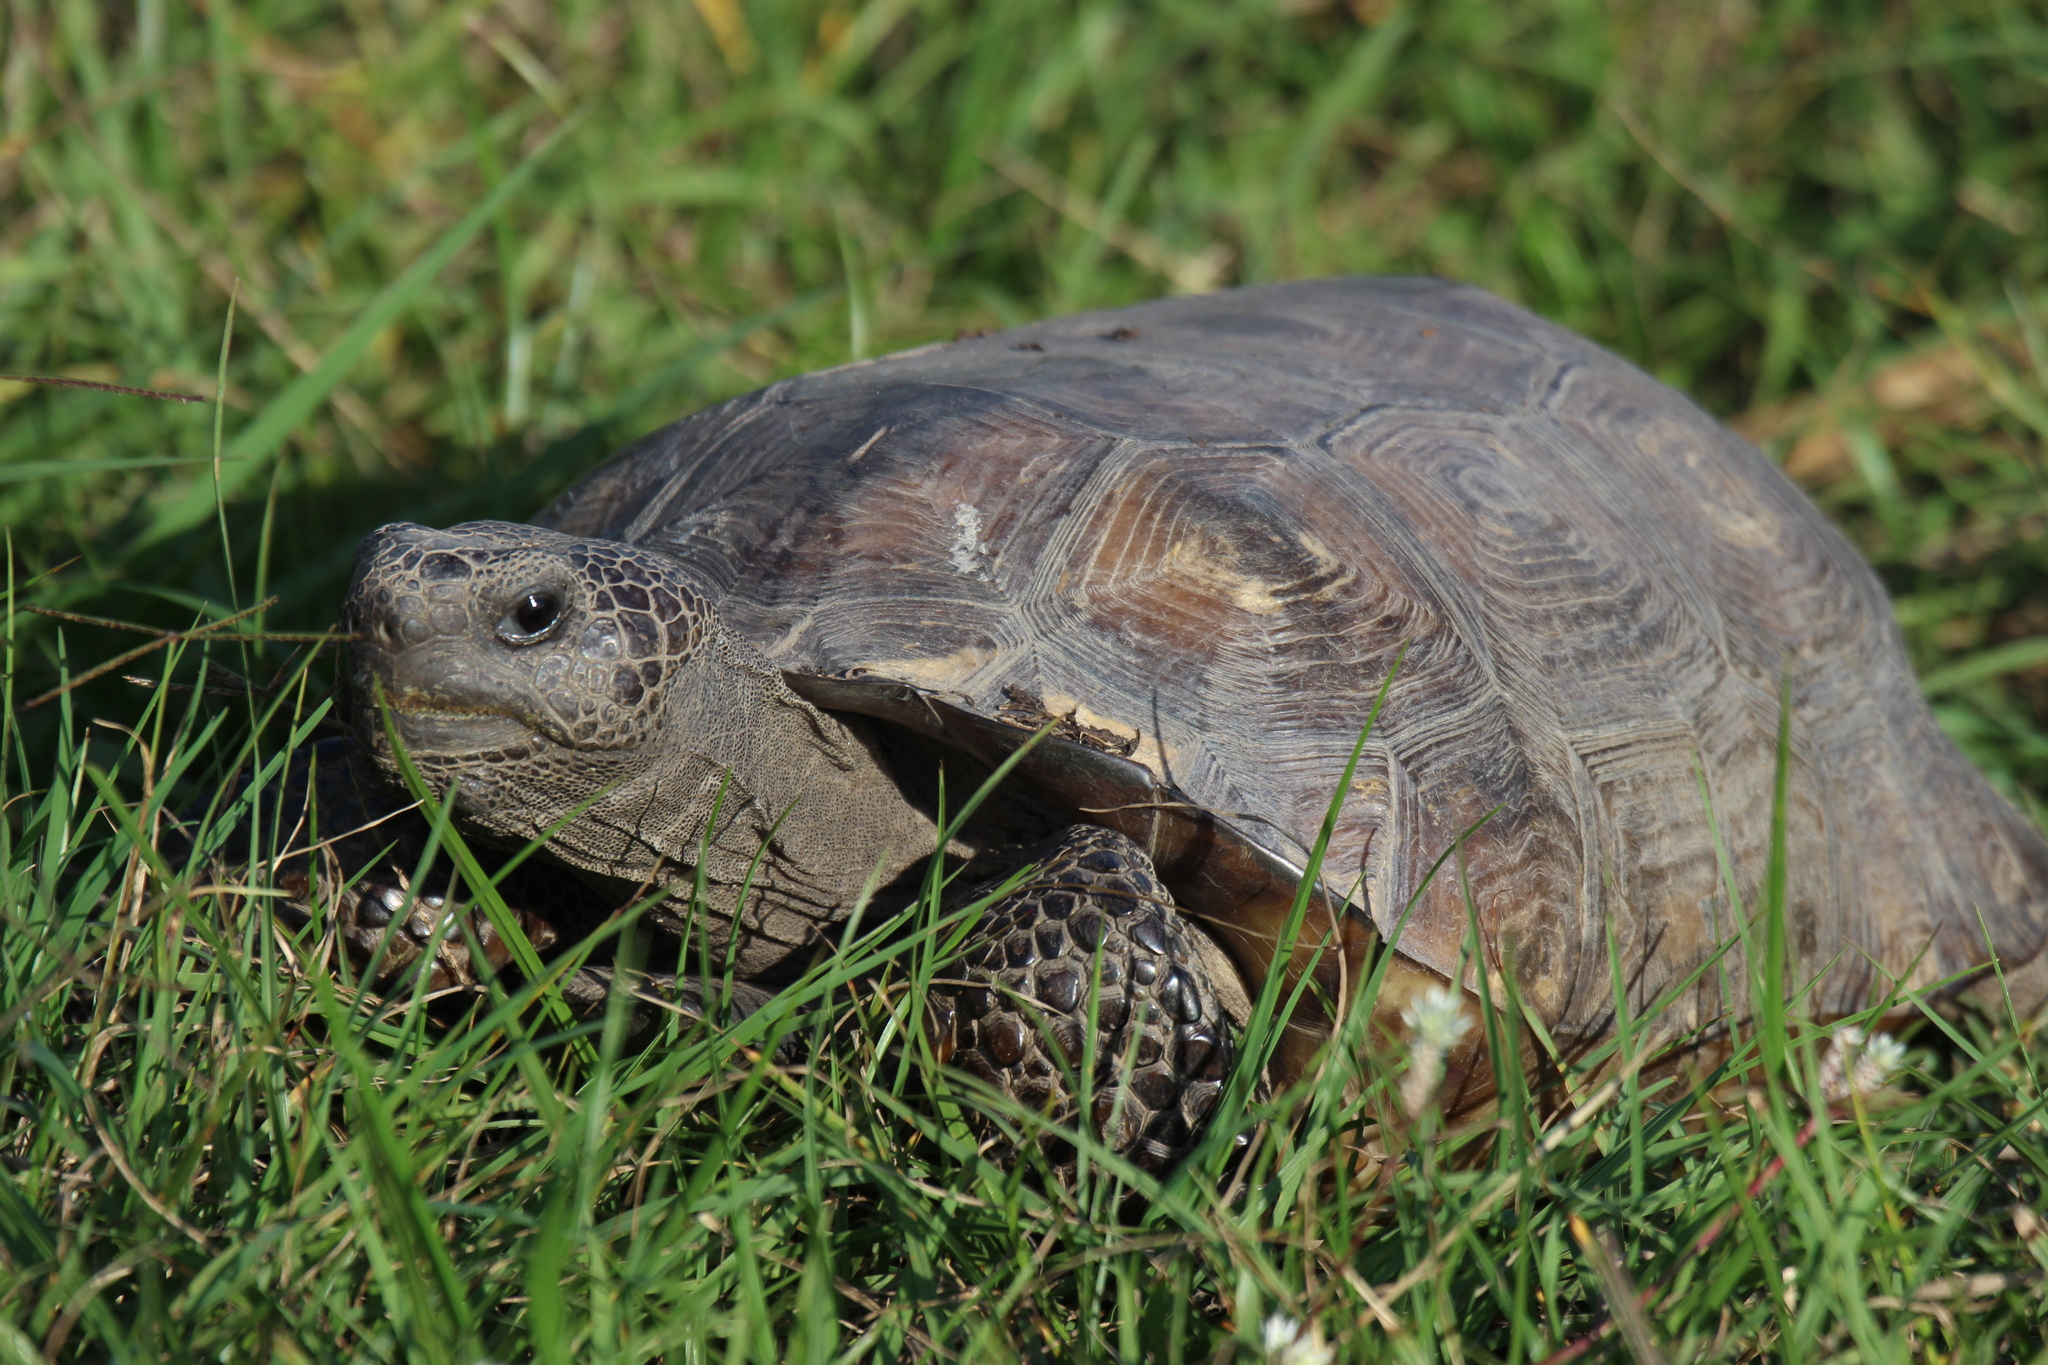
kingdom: Animalia
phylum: Chordata
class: Testudines
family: Testudinidae
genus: Gopherus
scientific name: Gopherus polyphemus
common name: Florida gopher tortoise
